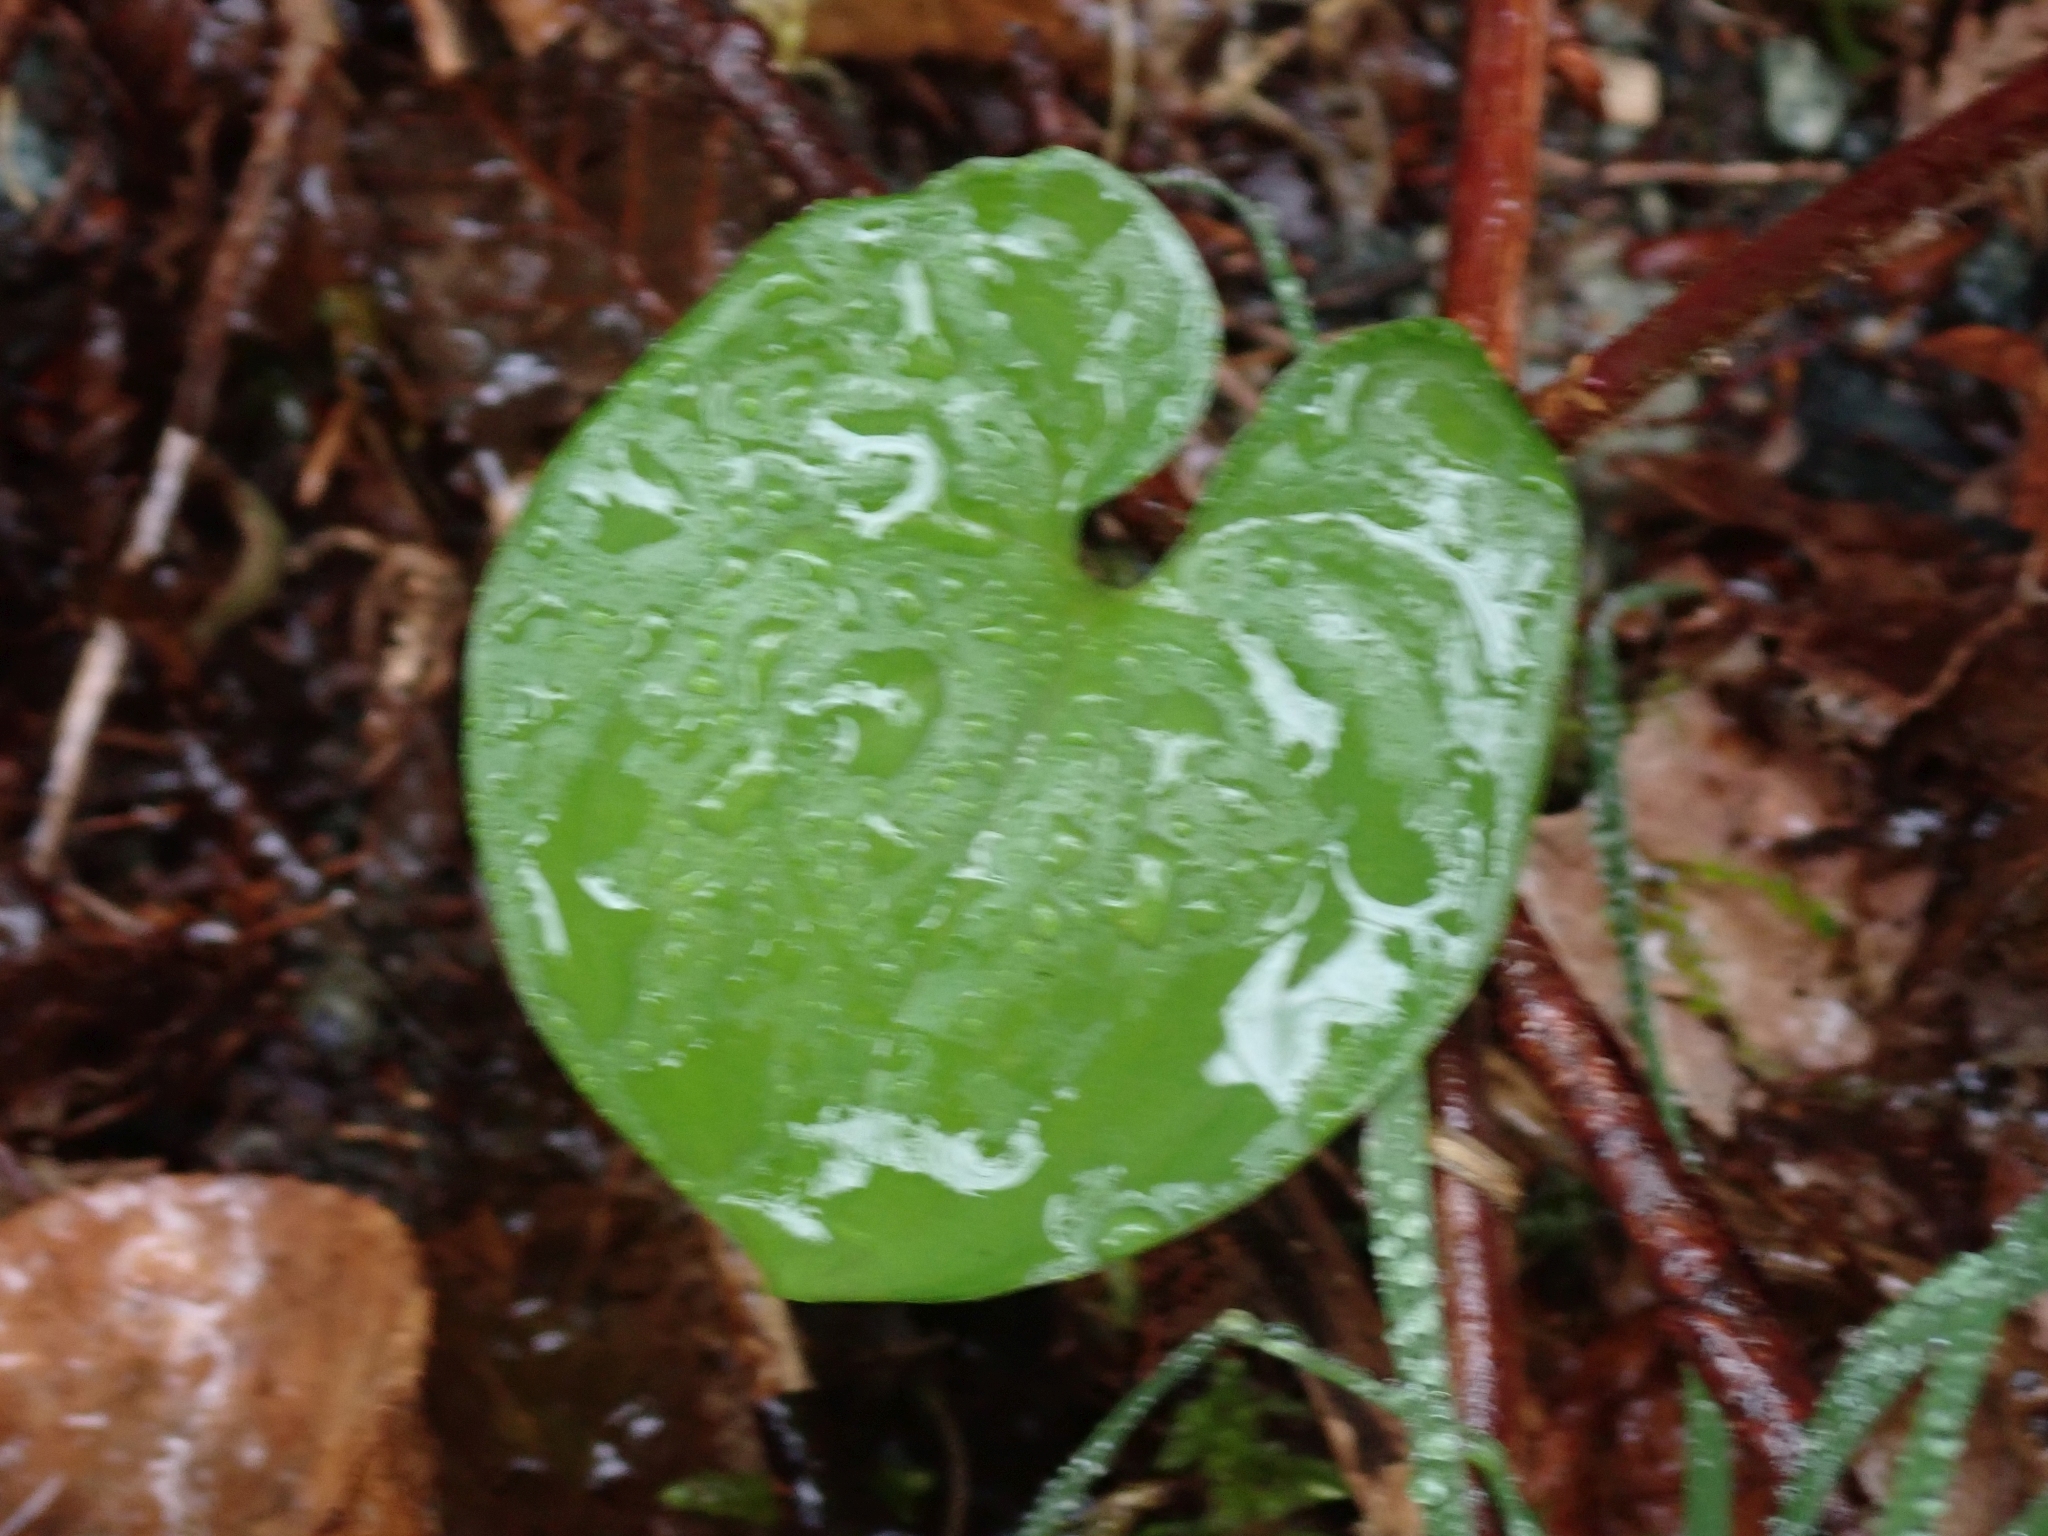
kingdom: Plantae
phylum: Tracheophyta
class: Liliopsida
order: Asparagales
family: Asparagaceae
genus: Maianthemum
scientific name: Maianthemum dilatatum
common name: False lily-of-the-valley
